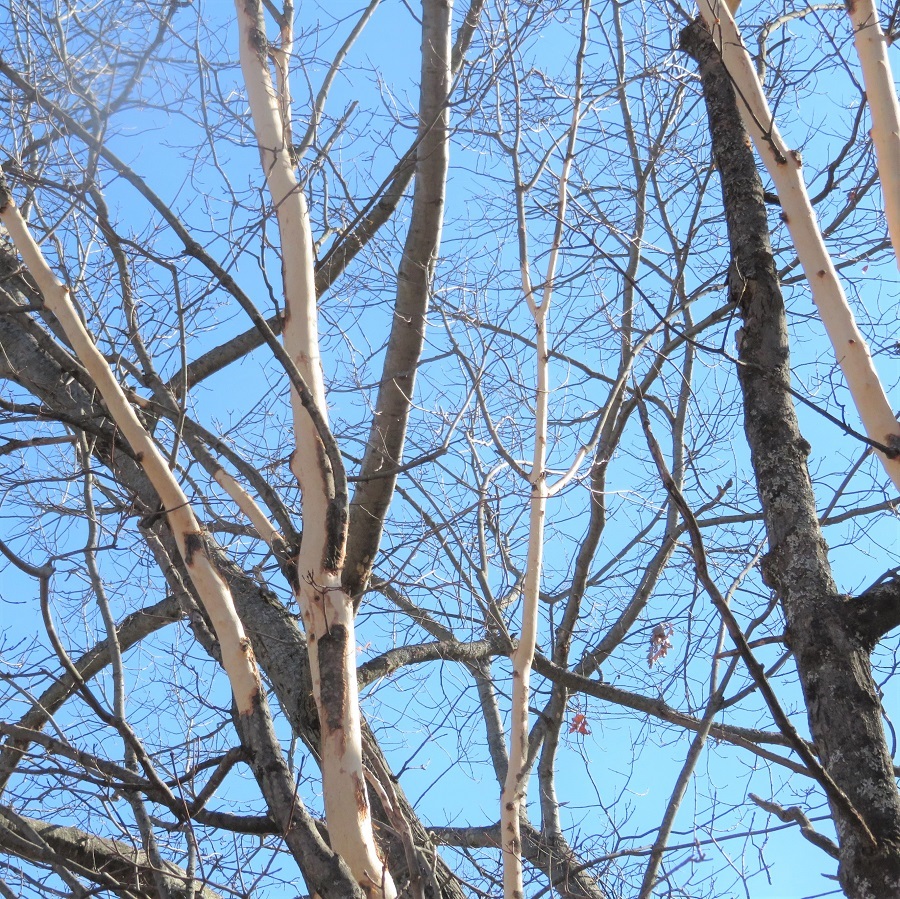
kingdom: Animalia
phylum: Chordata
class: Mammalia
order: Rodentia
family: Erethizontidae
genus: Erethizon
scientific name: Erethizon dorsatus
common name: North american porcupine
